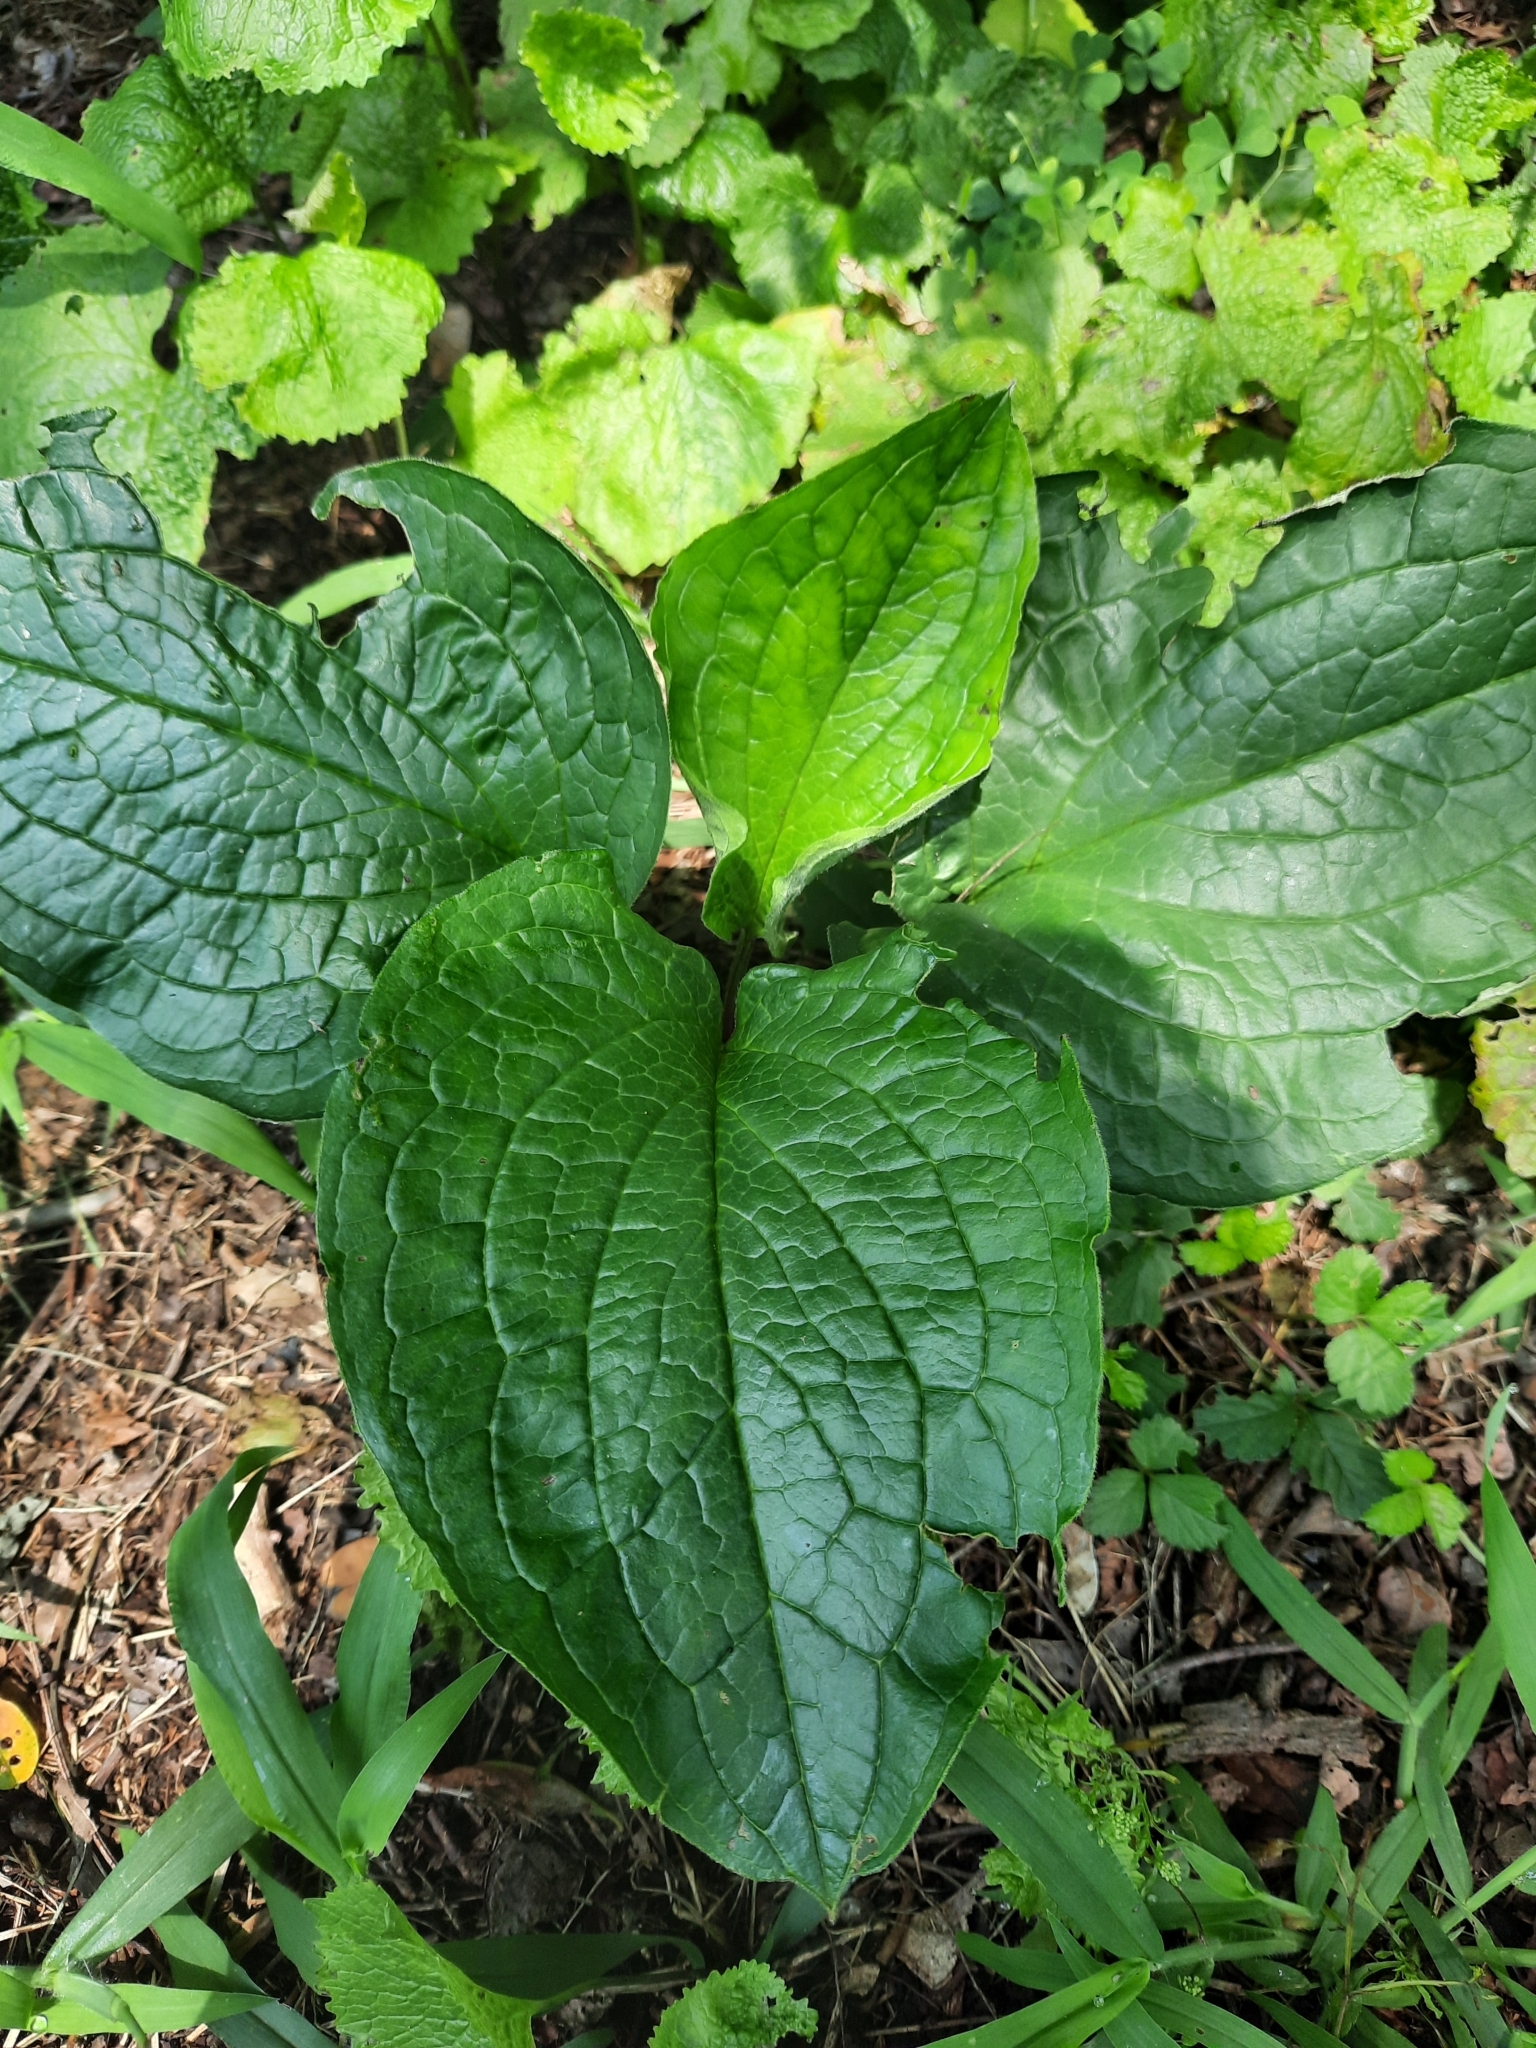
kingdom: Plantae
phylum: Tracheophyta
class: Magnoliopsida
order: Boraginales
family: Boraginaceae
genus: Hackelia
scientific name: Hackelia virginiana
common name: Beggar's-lice
